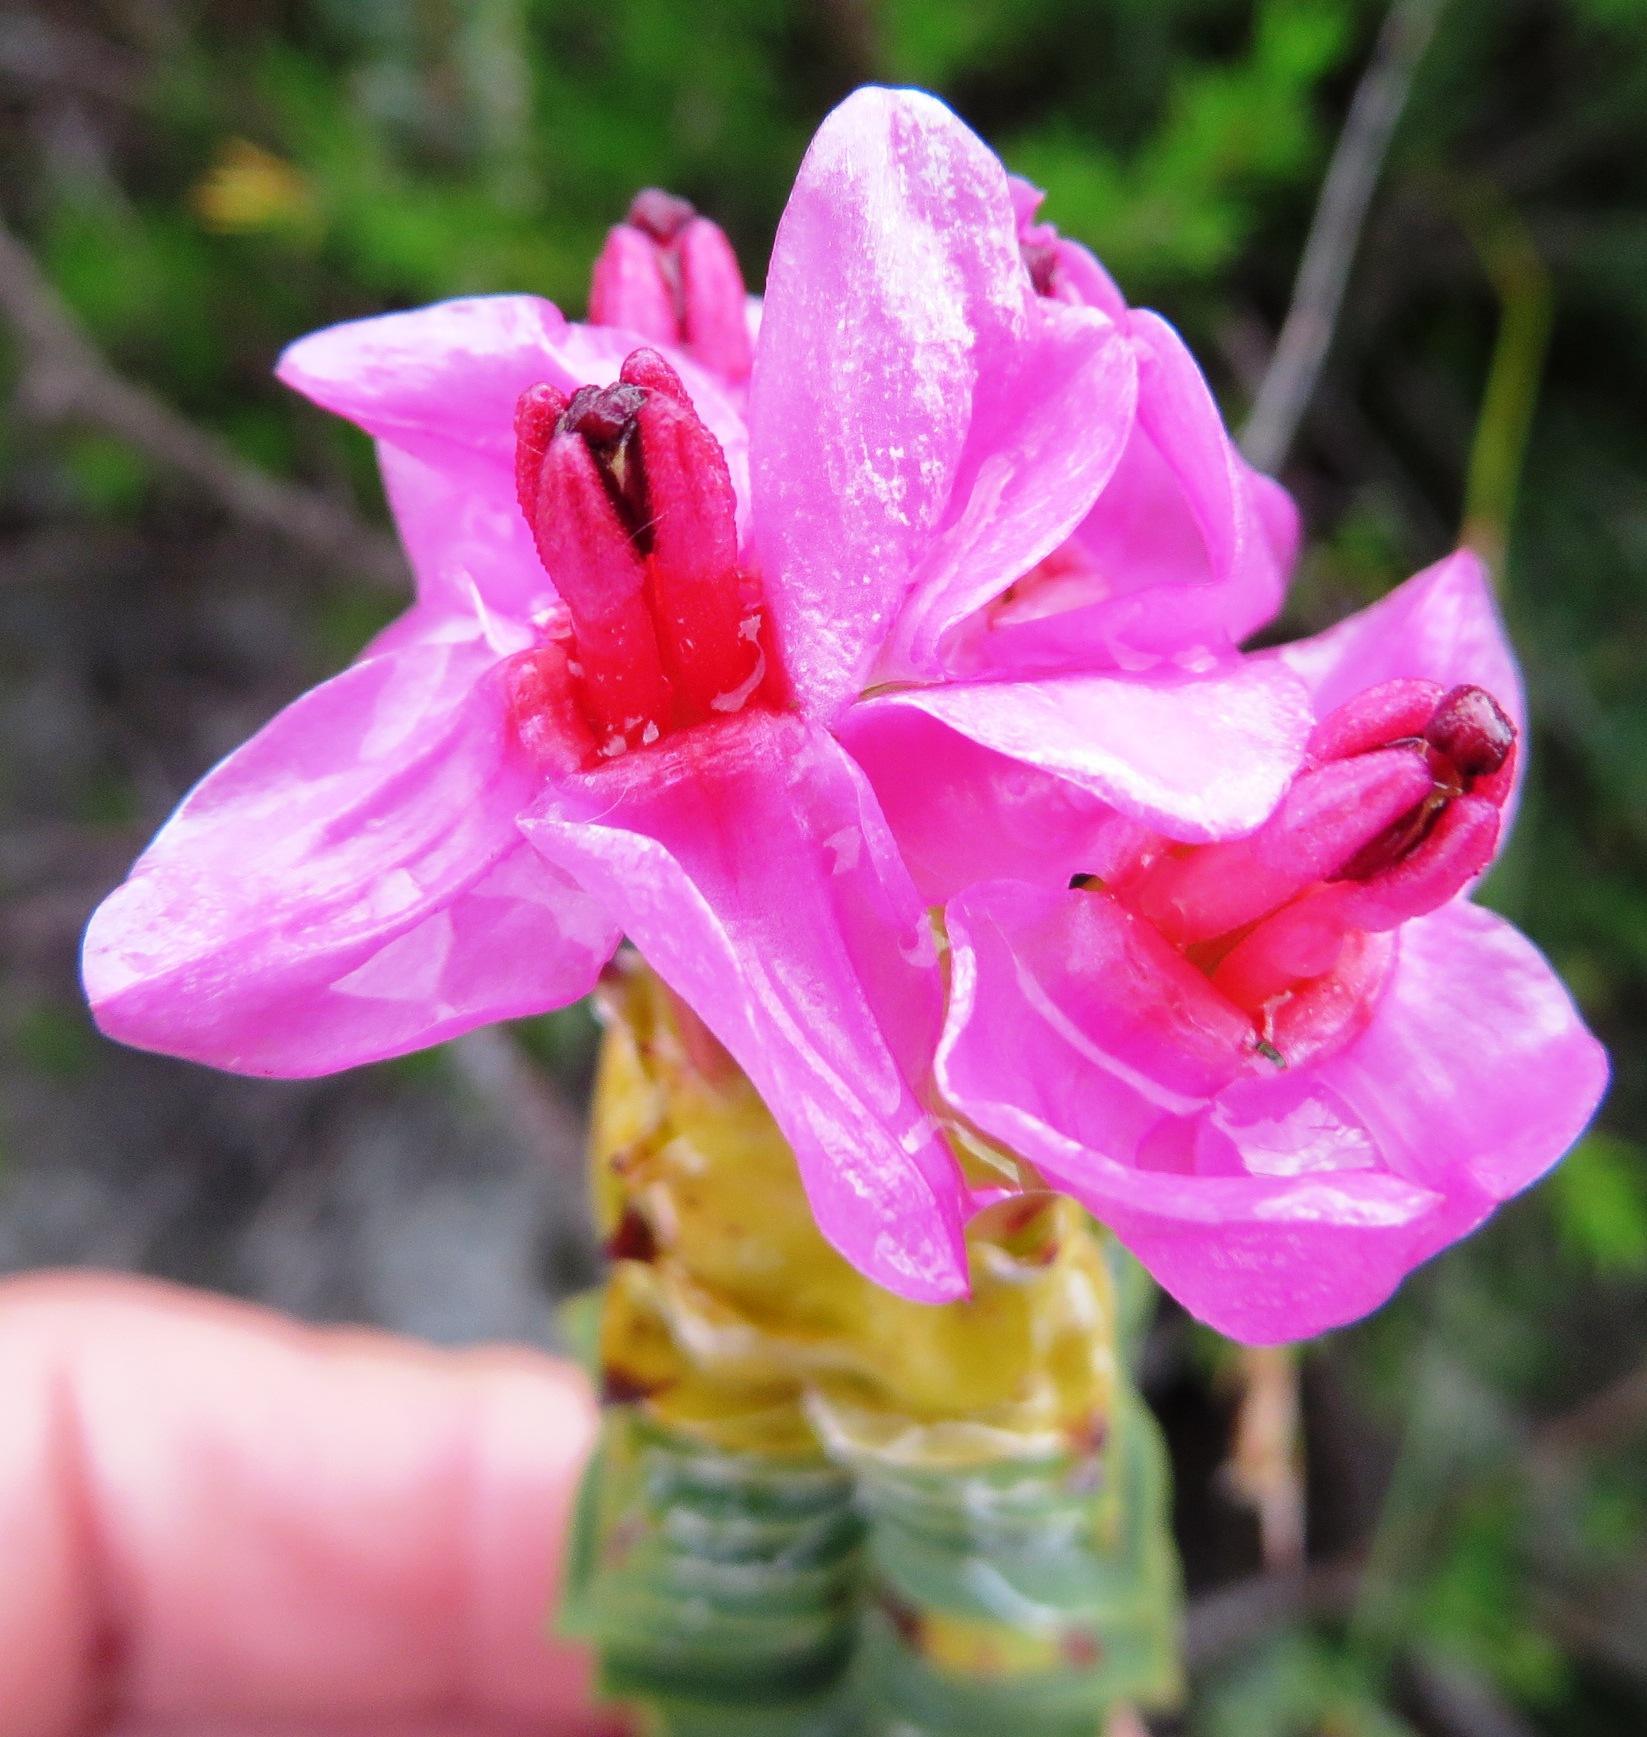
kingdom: Plantae
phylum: Tracheophyta
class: Magnoliopsida
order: Myrtales
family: Penaeaceae
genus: Saltera
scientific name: Saltera sarcocolla
